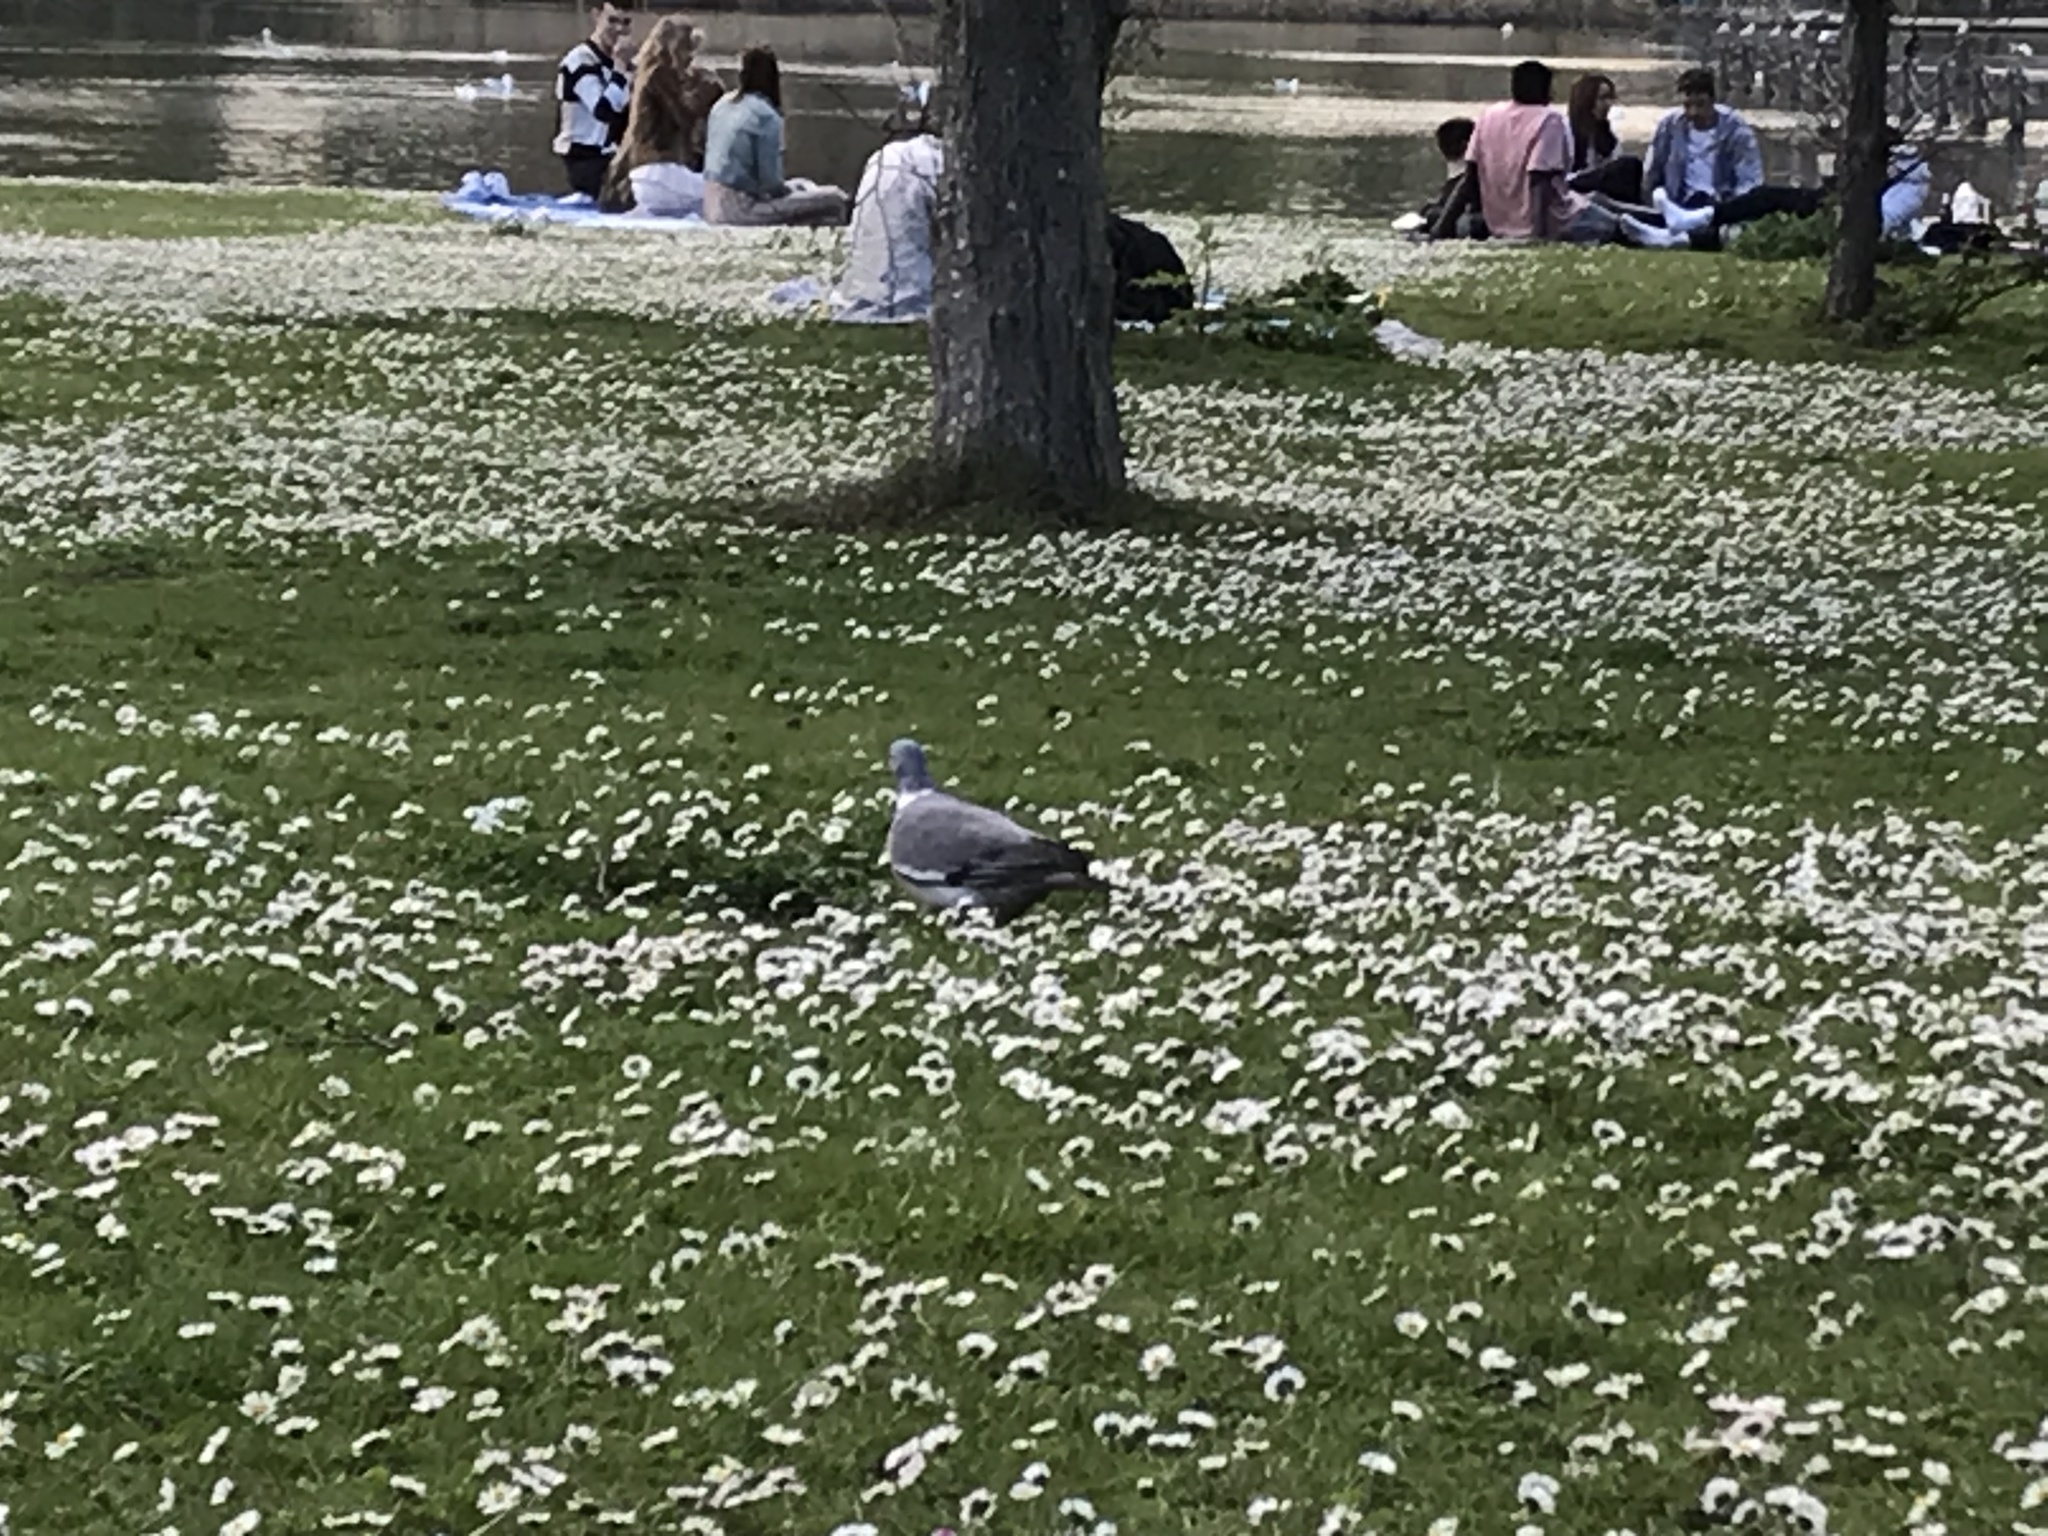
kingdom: Animalia
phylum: Chordata
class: Aves
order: Columbiformes
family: Columbidae
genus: Columba
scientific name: Columba palumbus
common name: Common wood pigeon
